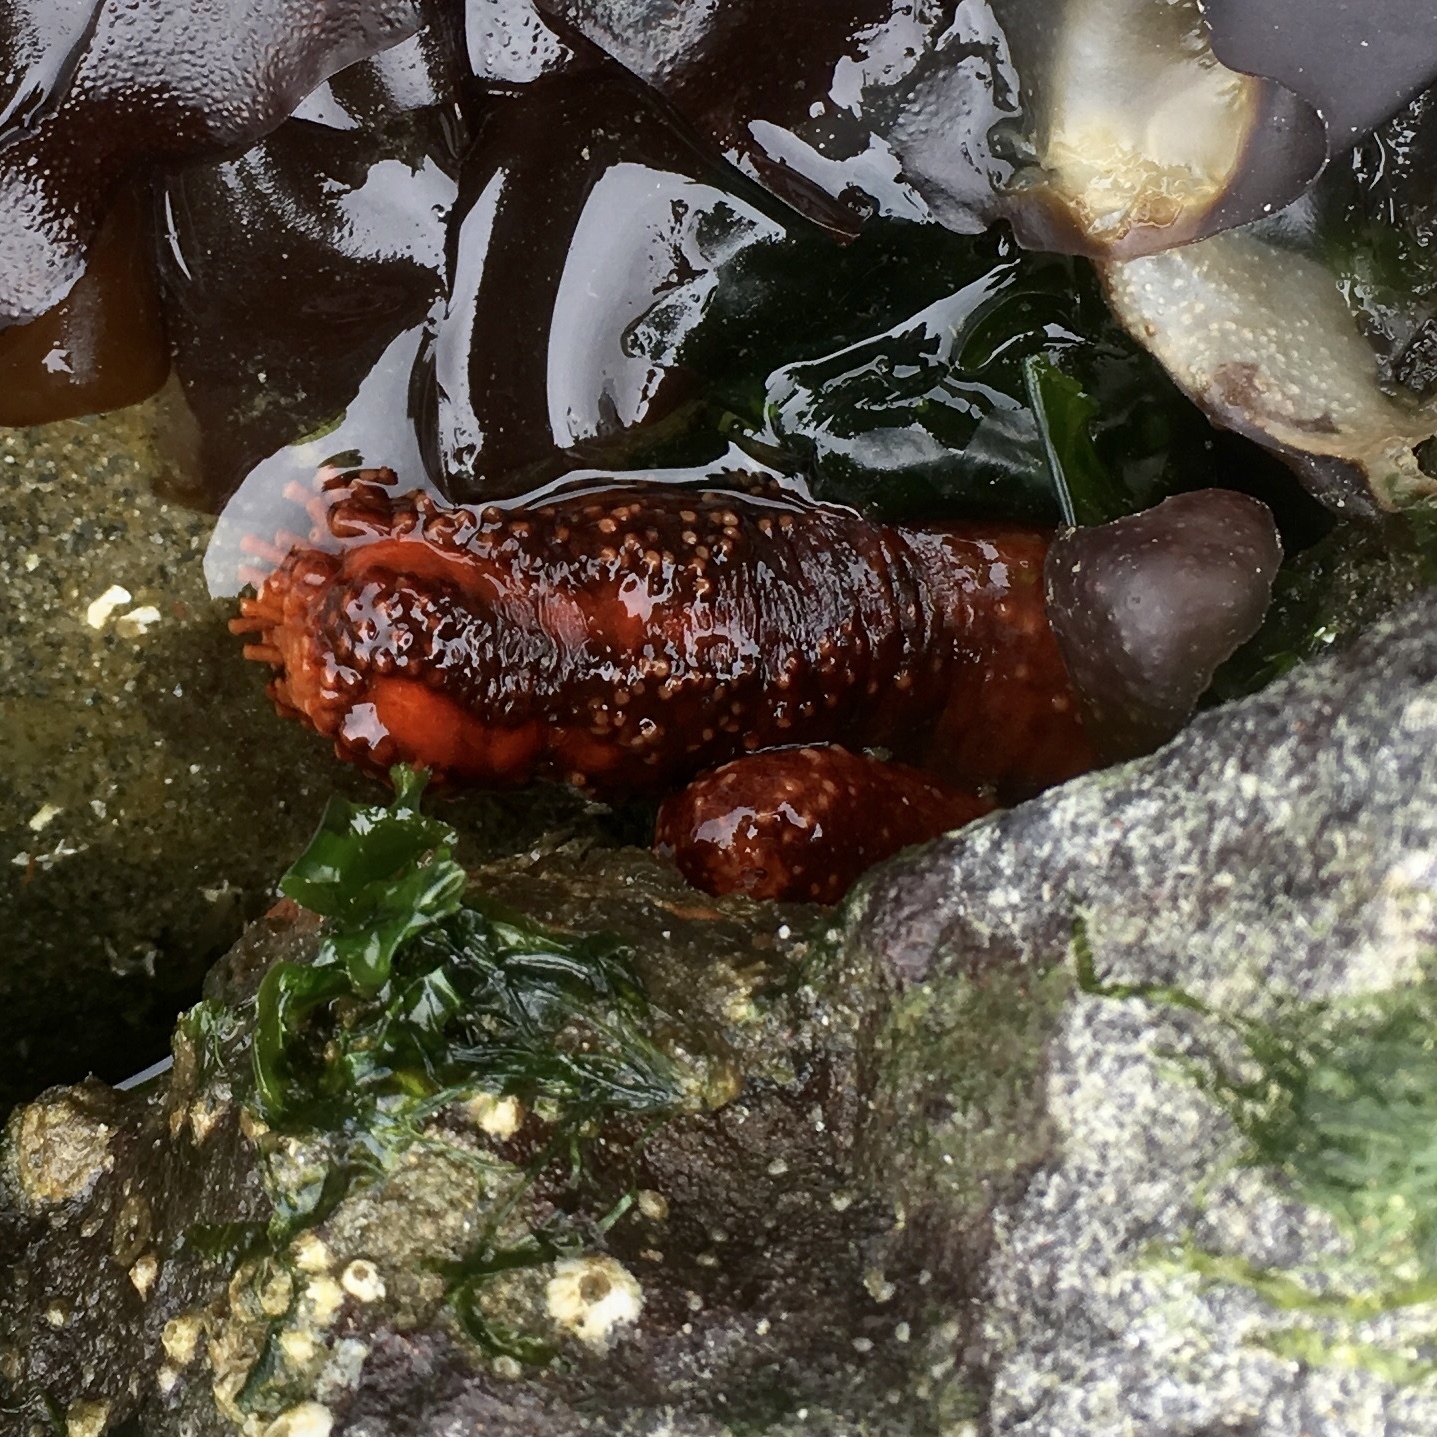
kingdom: Animalia
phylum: Echinodermata
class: Holothuroidea
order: Dendrochirotida
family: Cucumariidae
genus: Cucumaria
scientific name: Cucumaria miniata
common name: Orange sea cucumber
